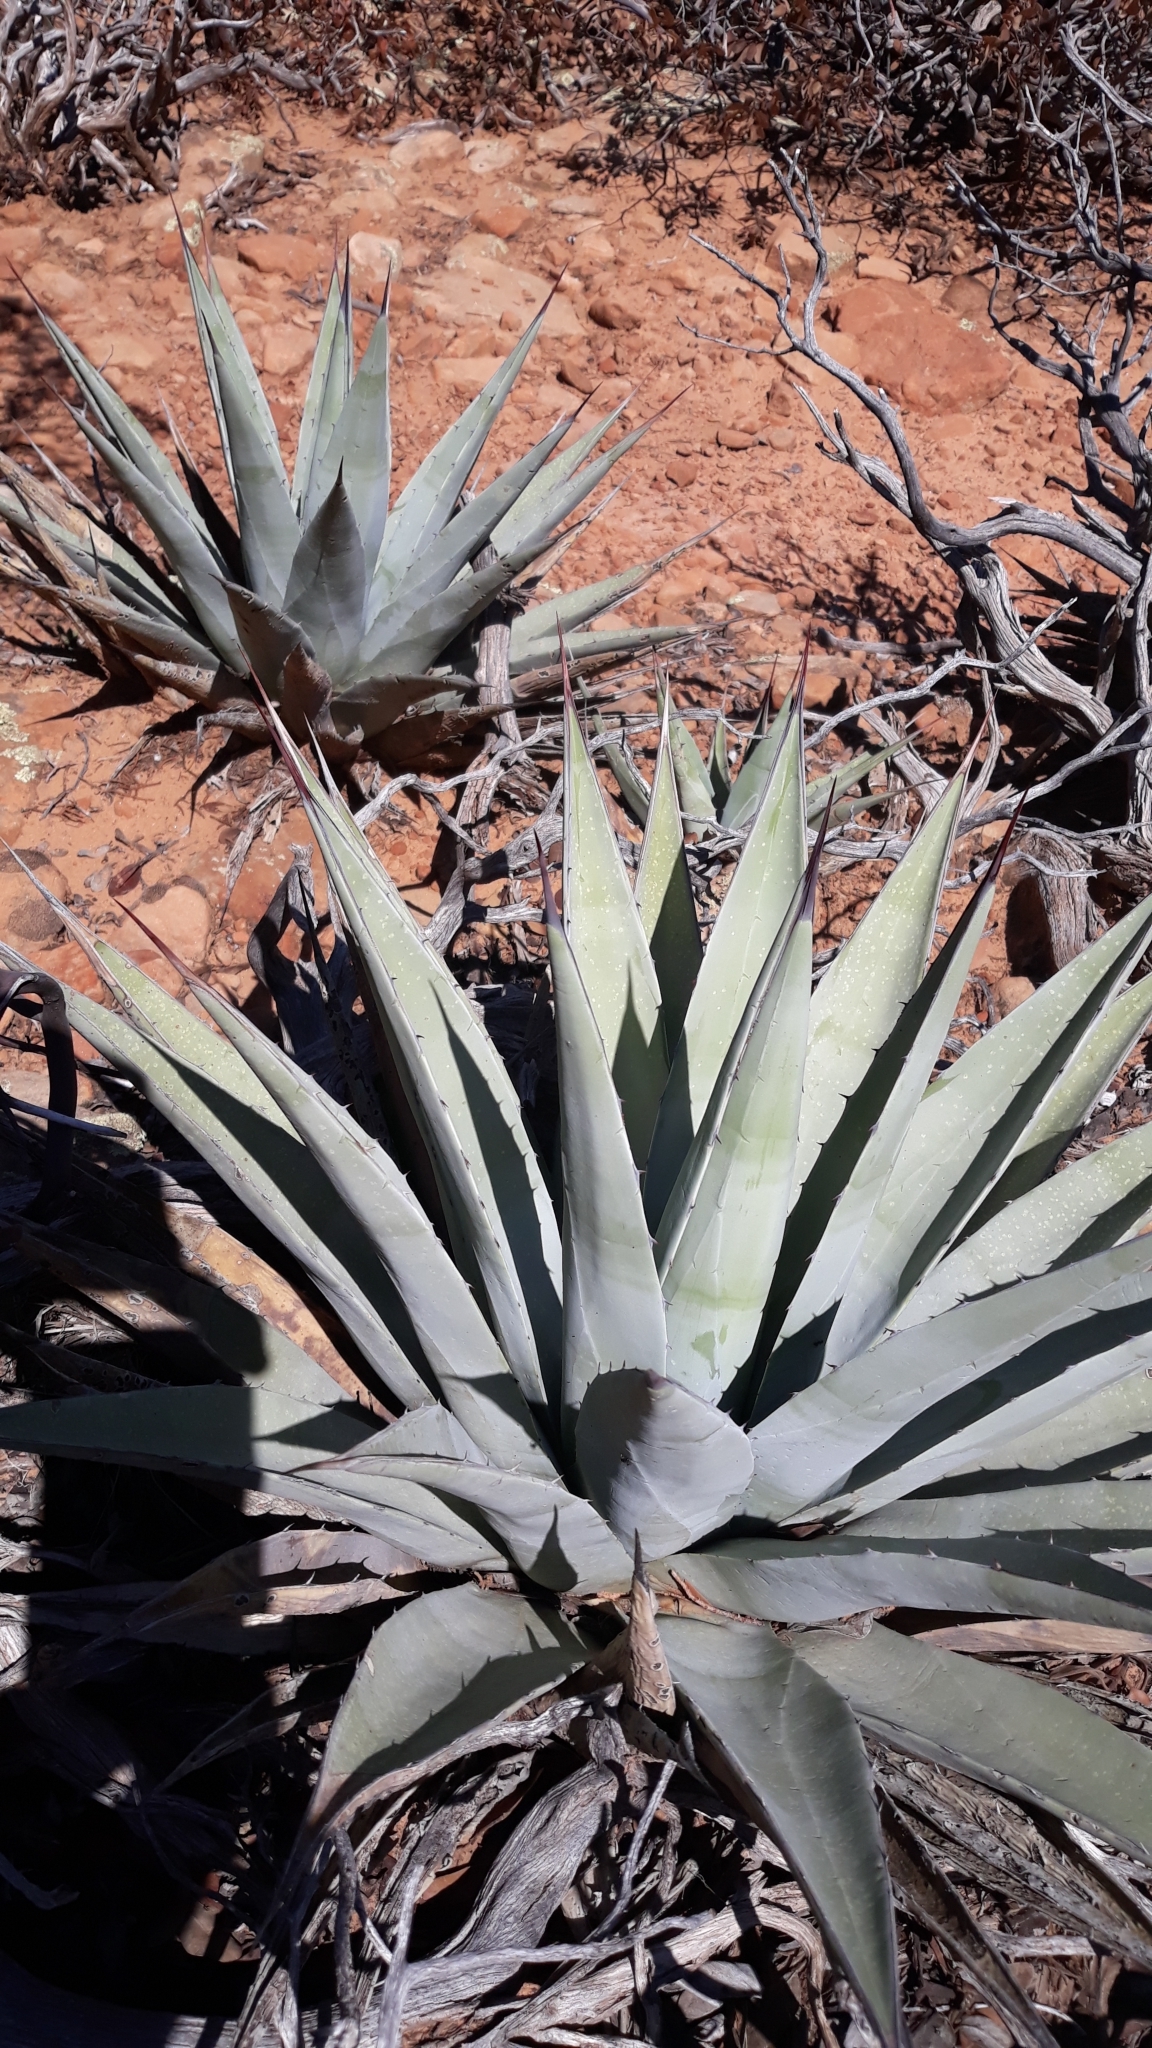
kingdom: Plantae
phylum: Tracheophyta
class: Liliopsida
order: Asparagales
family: Asparagaceae
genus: Agave
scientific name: Agave parryi
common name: Parry's agave
